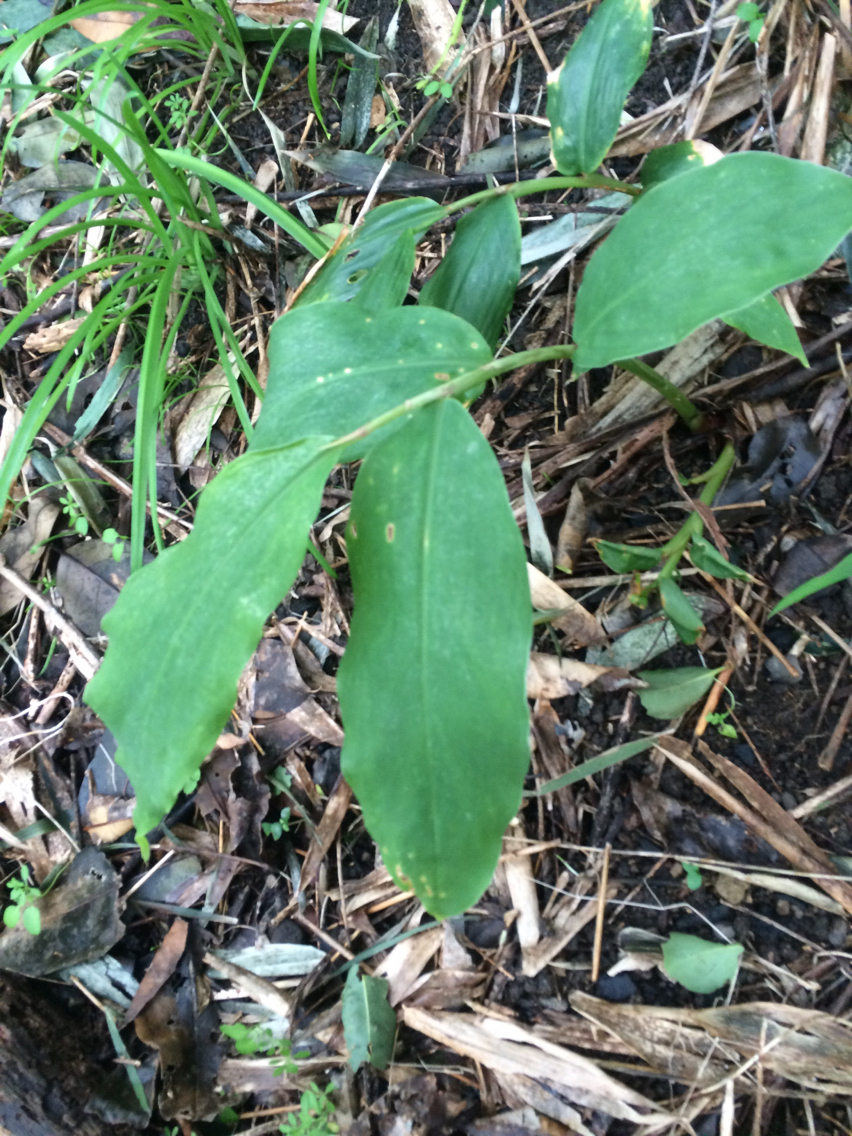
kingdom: Plantae
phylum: Tracheophyta
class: Liliopsida
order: Zingiberales
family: Zingiberaceae
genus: Hedychium
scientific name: Hedychium gardnerianum
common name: Himalayan ginger
